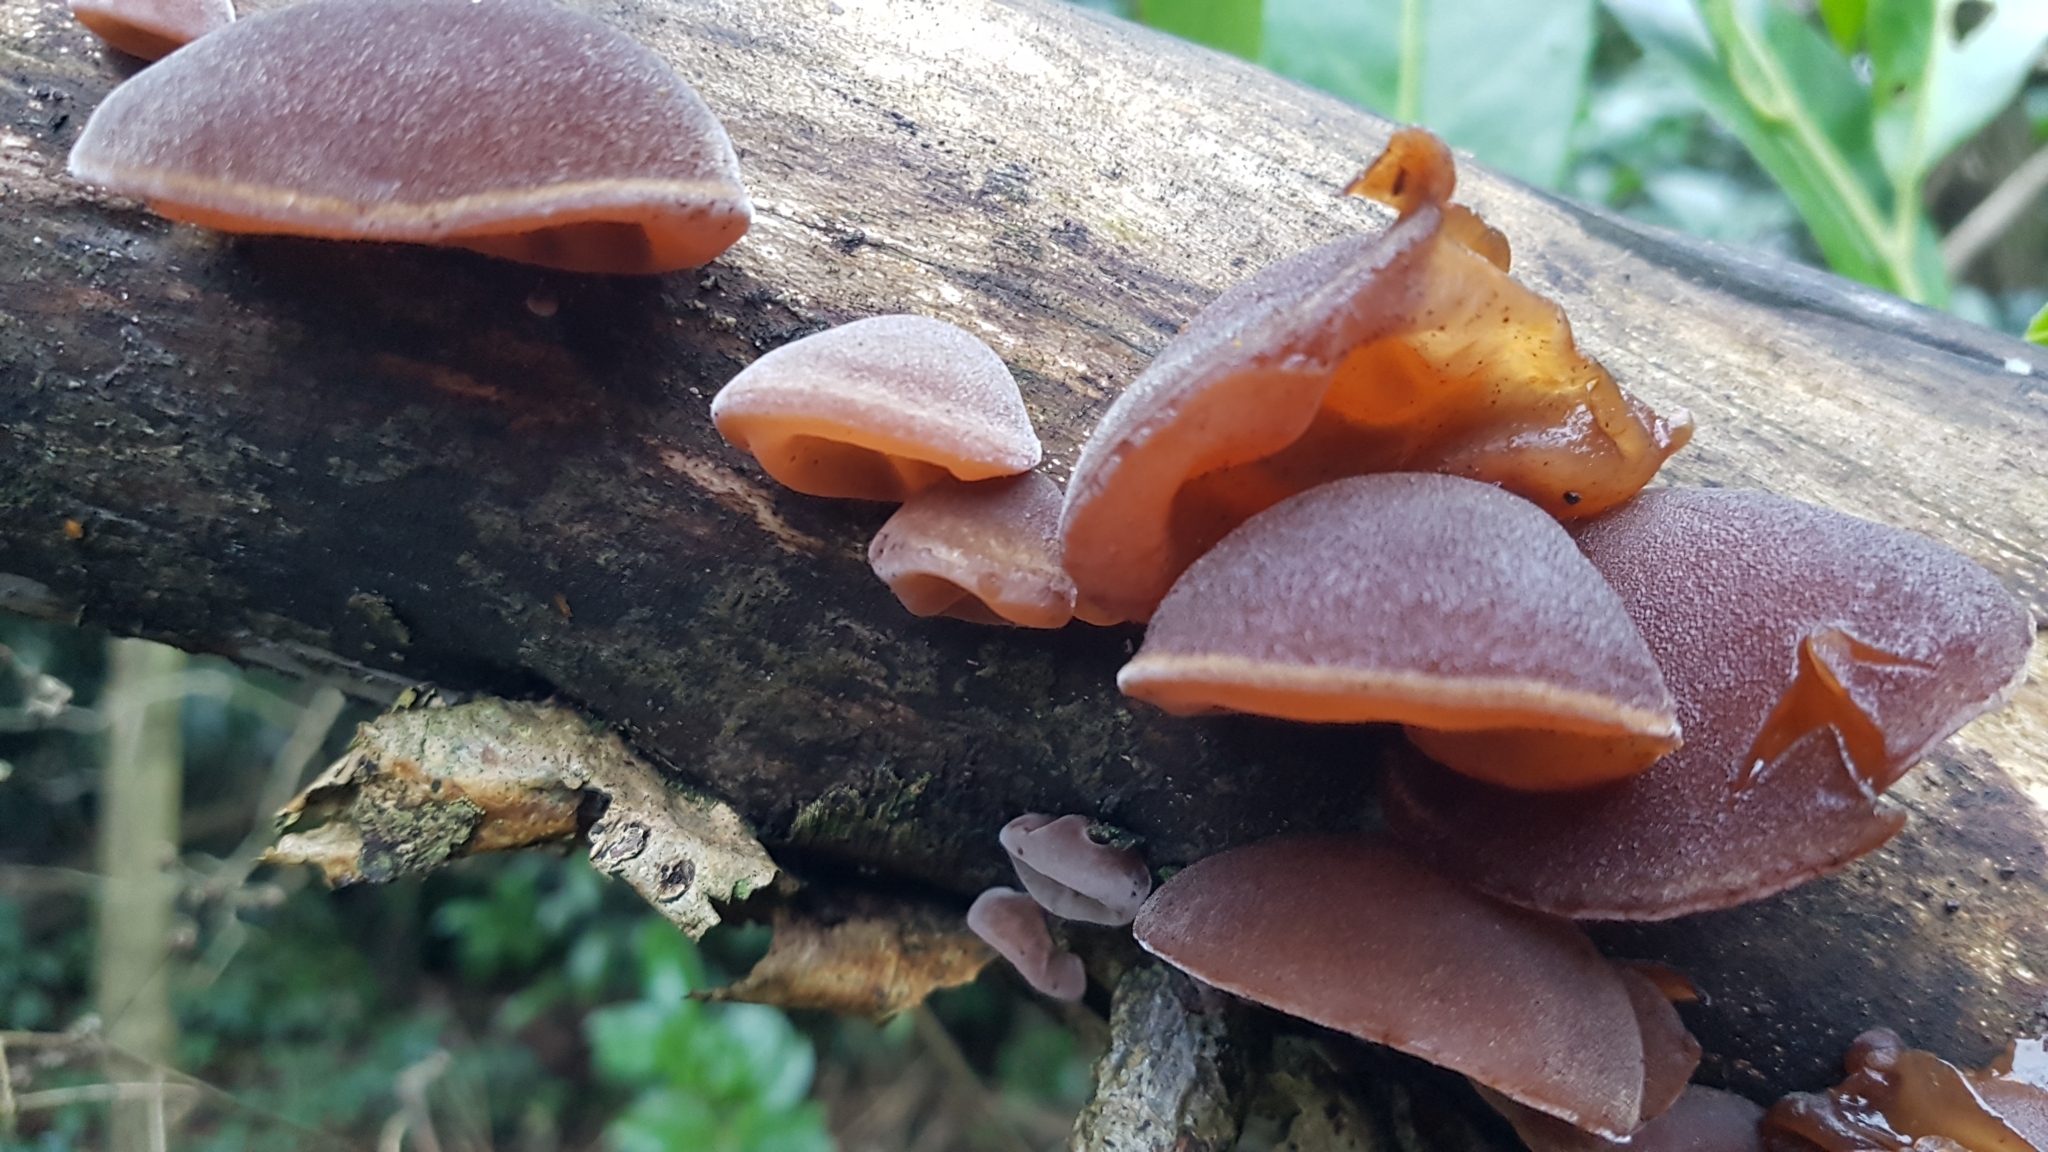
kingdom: Fungi
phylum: Basidiomycota
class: Agaricomycetes
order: Auriculariales
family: Auriculariaceae
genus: Auricularia
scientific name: Auricularia auricula-judae
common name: Jelly ear
